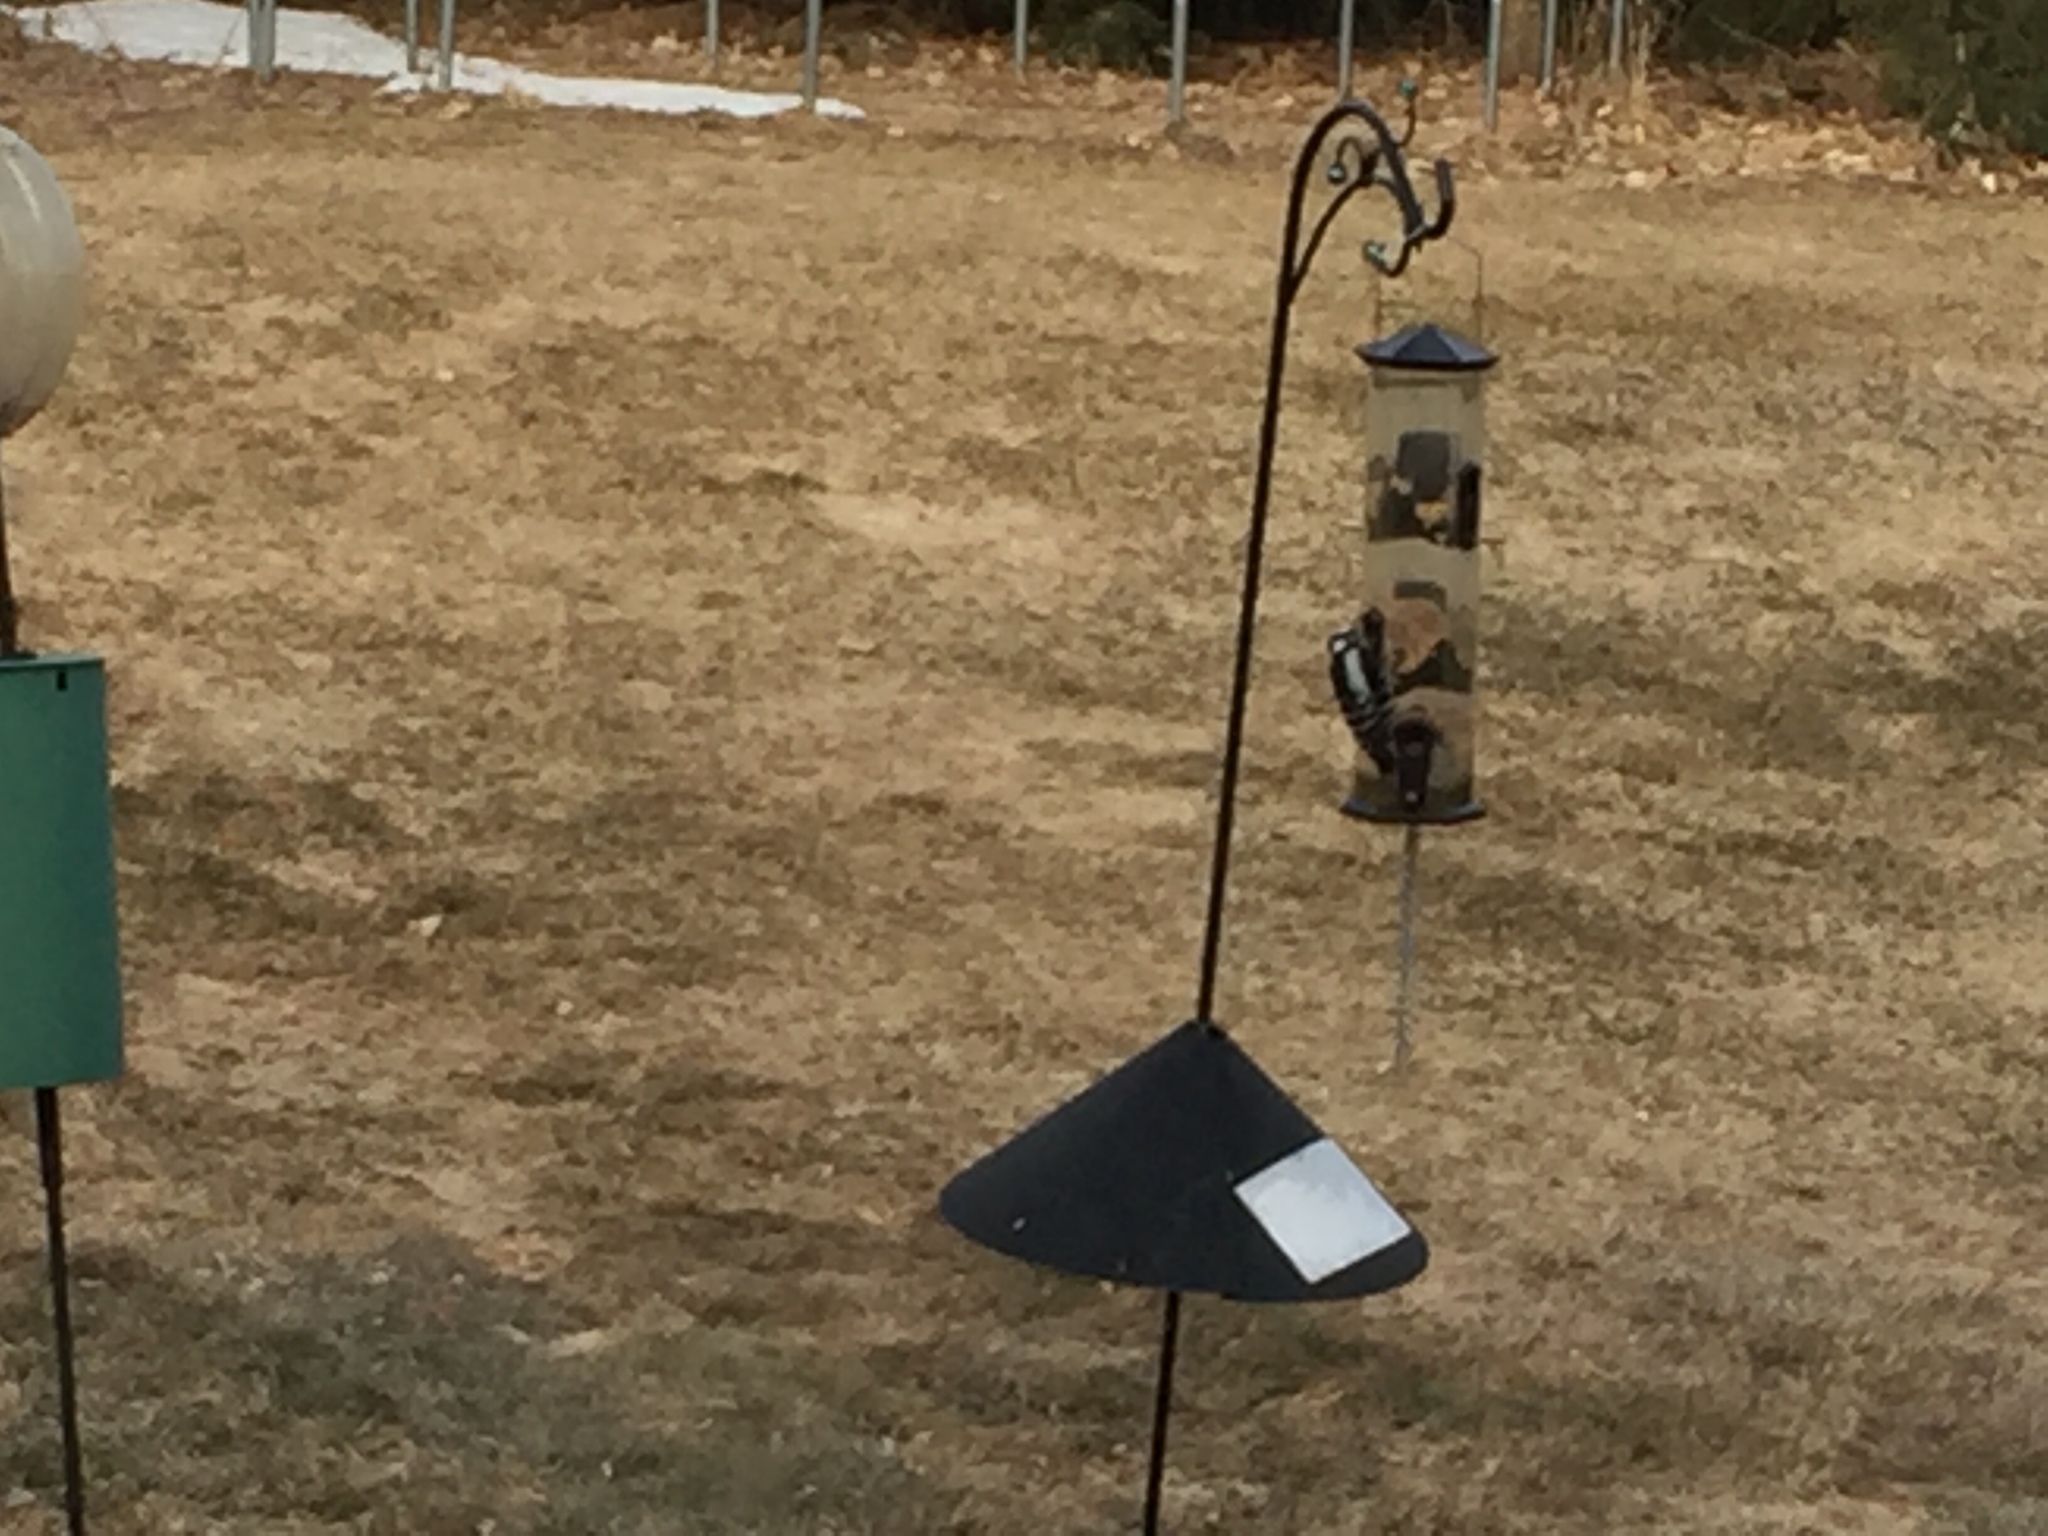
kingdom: Animalia
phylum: Chordata
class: Aves
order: Piciformes
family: Picidae
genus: Dryobates
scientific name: Dryobates pubescens
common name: Downy woodpecker
